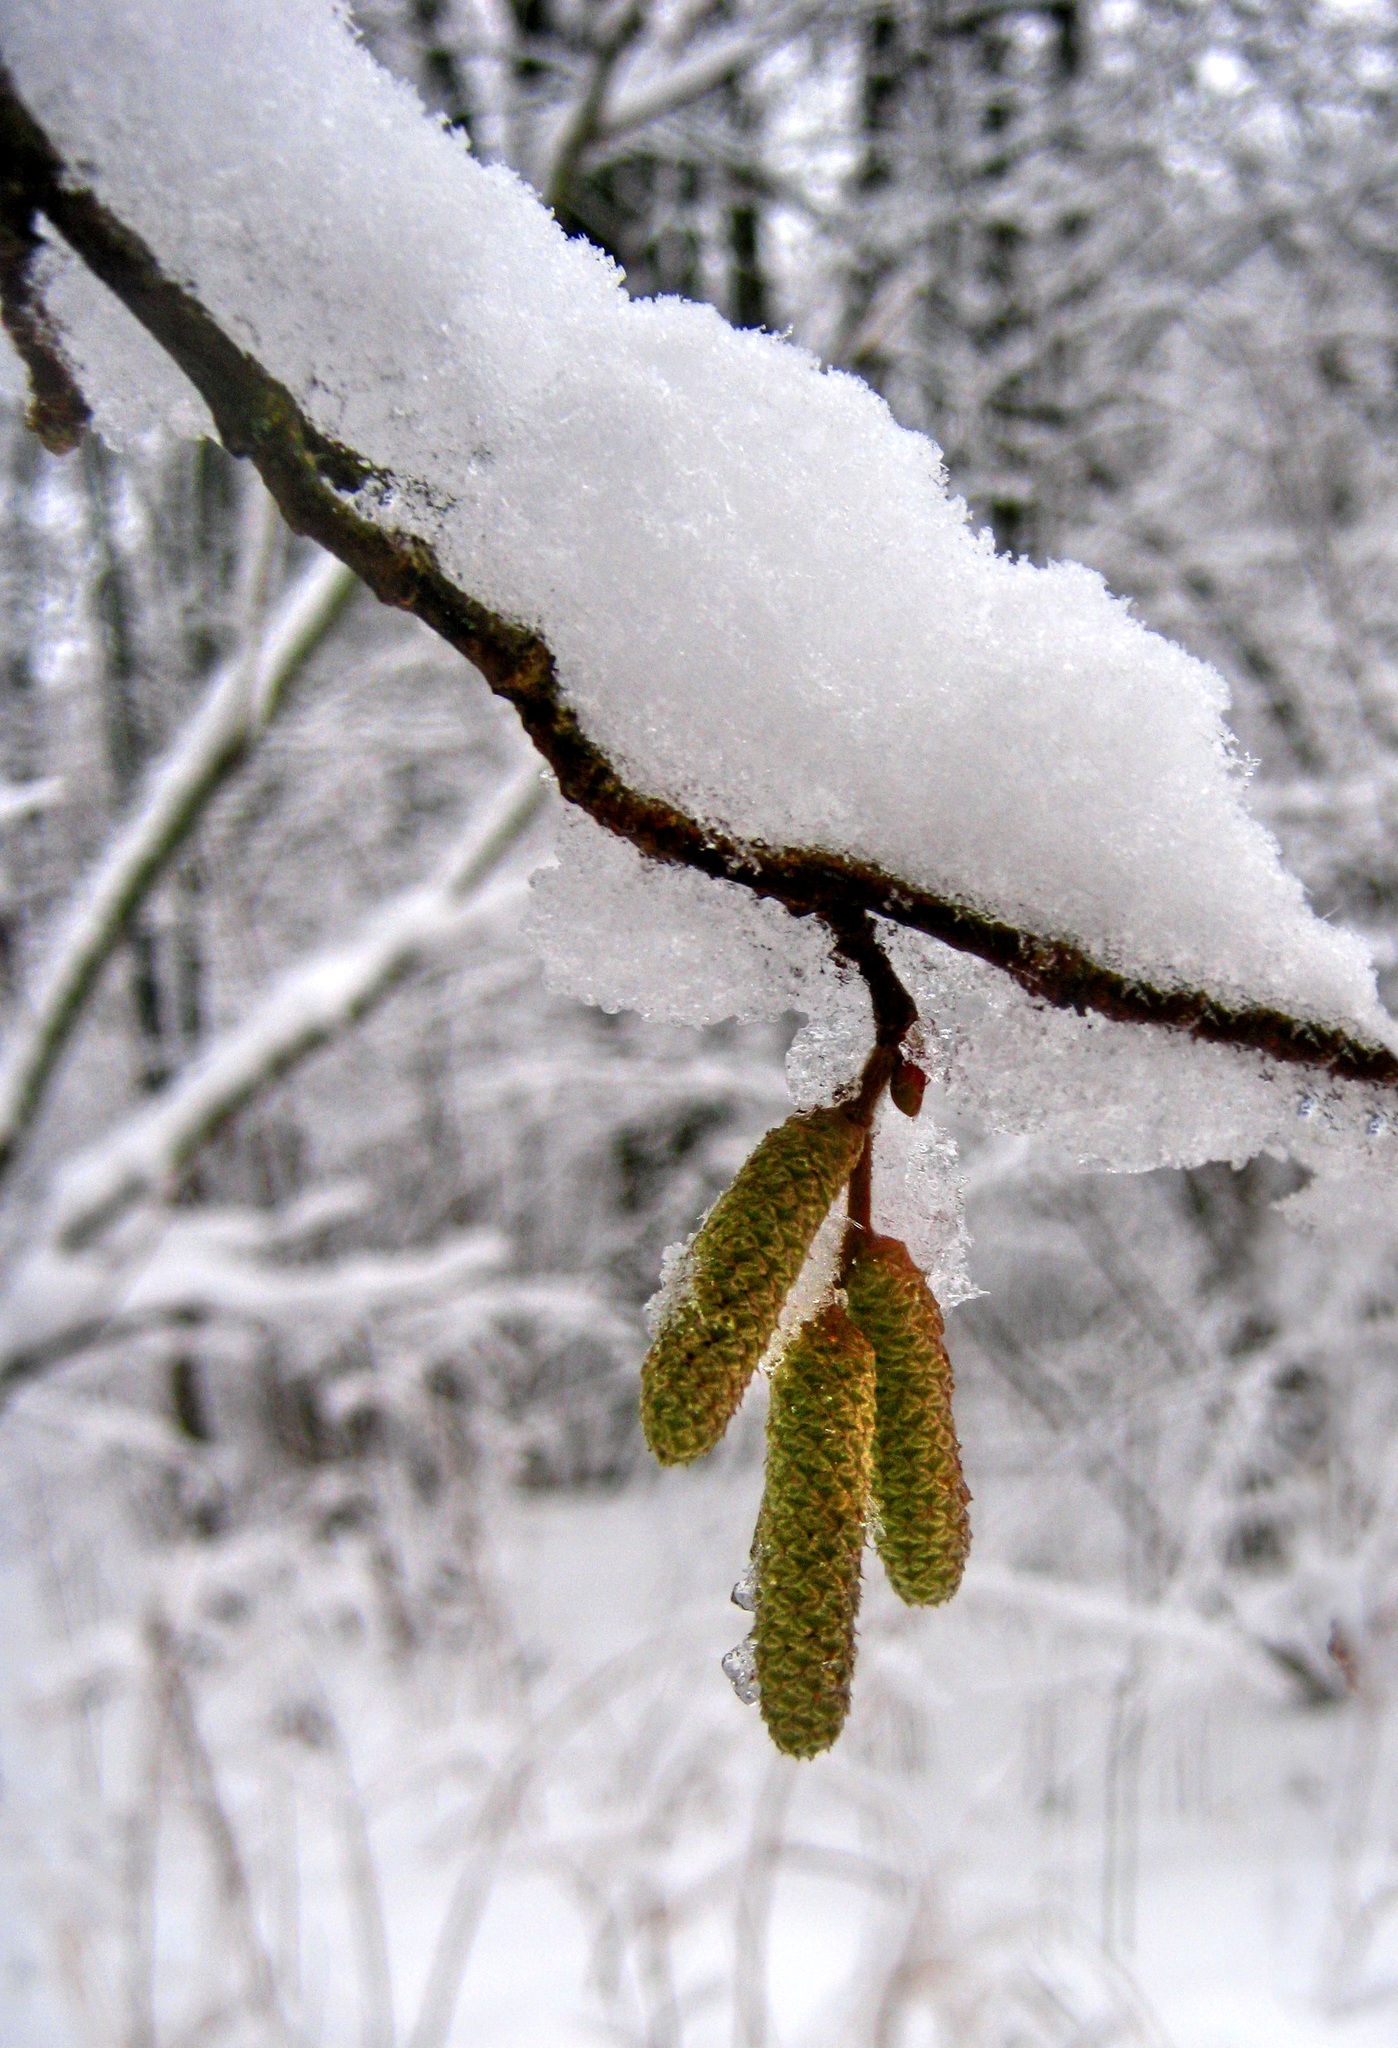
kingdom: Plantae
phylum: Tracheophyta
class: Magnoliopsida
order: Fagales
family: Betulaceae
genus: Corylus
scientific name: Corylus avellana
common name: European hazel
